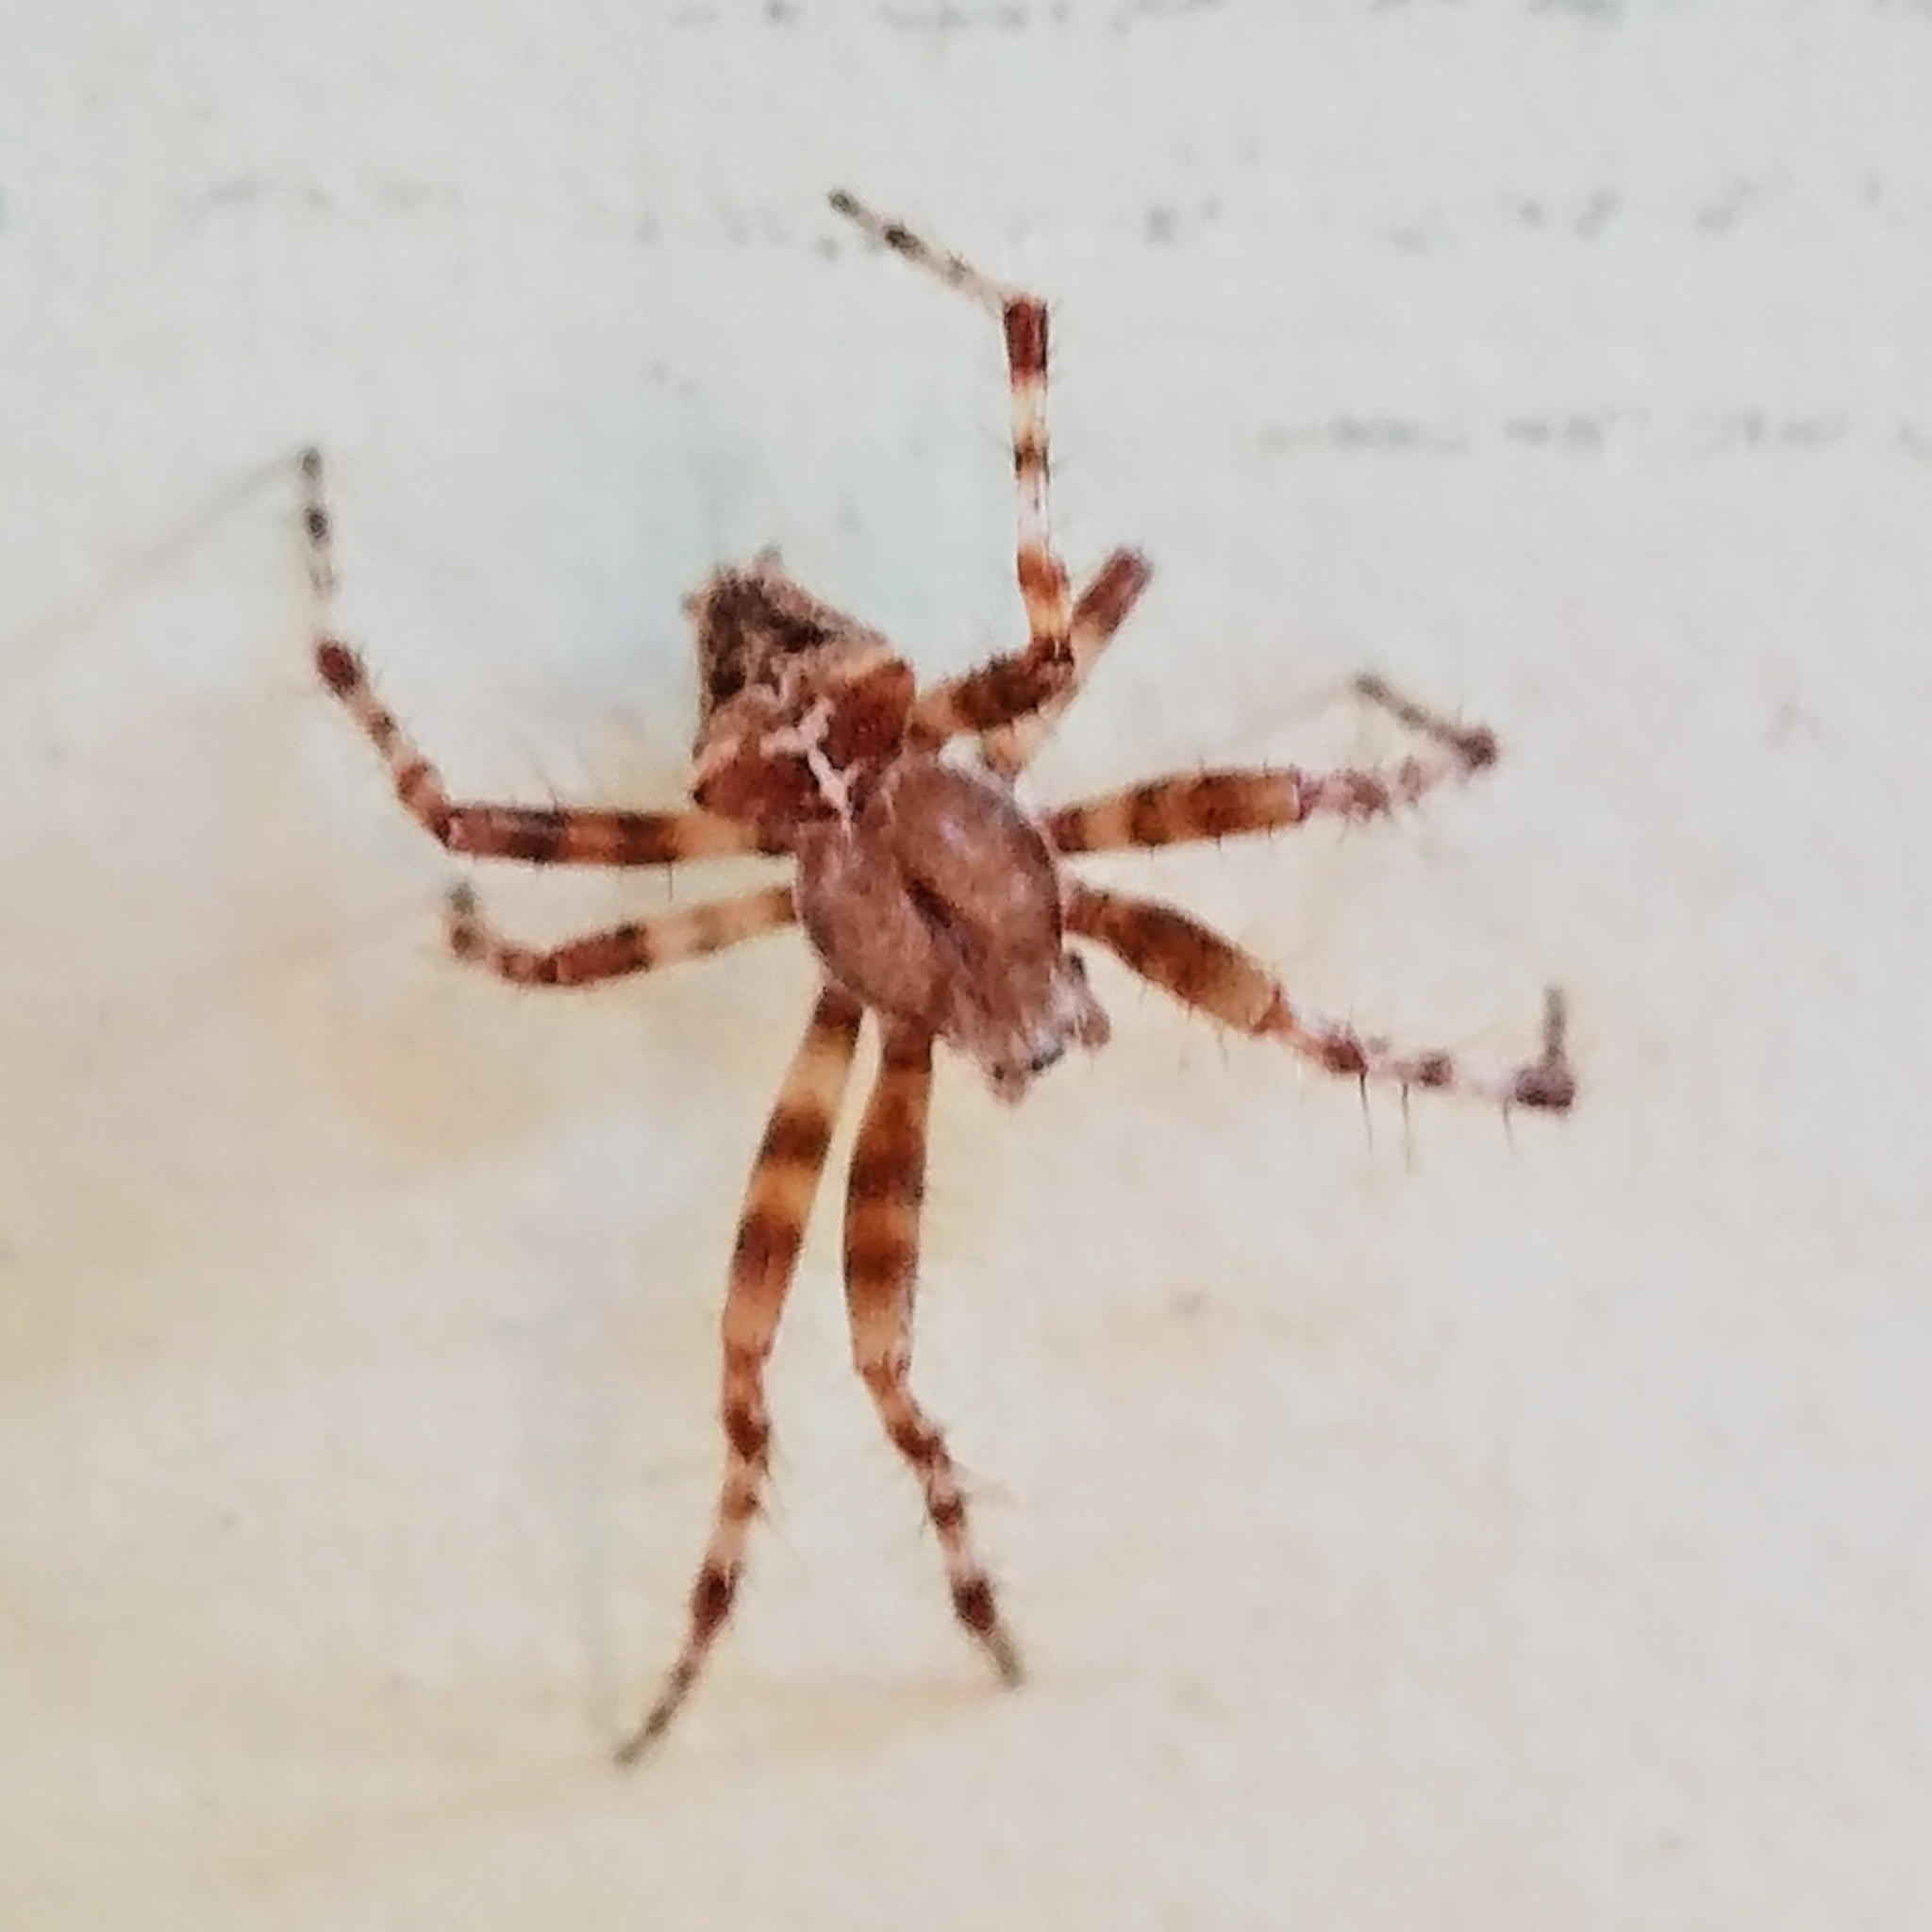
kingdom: Animalia
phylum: Arthropoda
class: Arachnida
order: Araneae
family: Araneidae
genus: Araneus
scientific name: Araneus gemmoides
